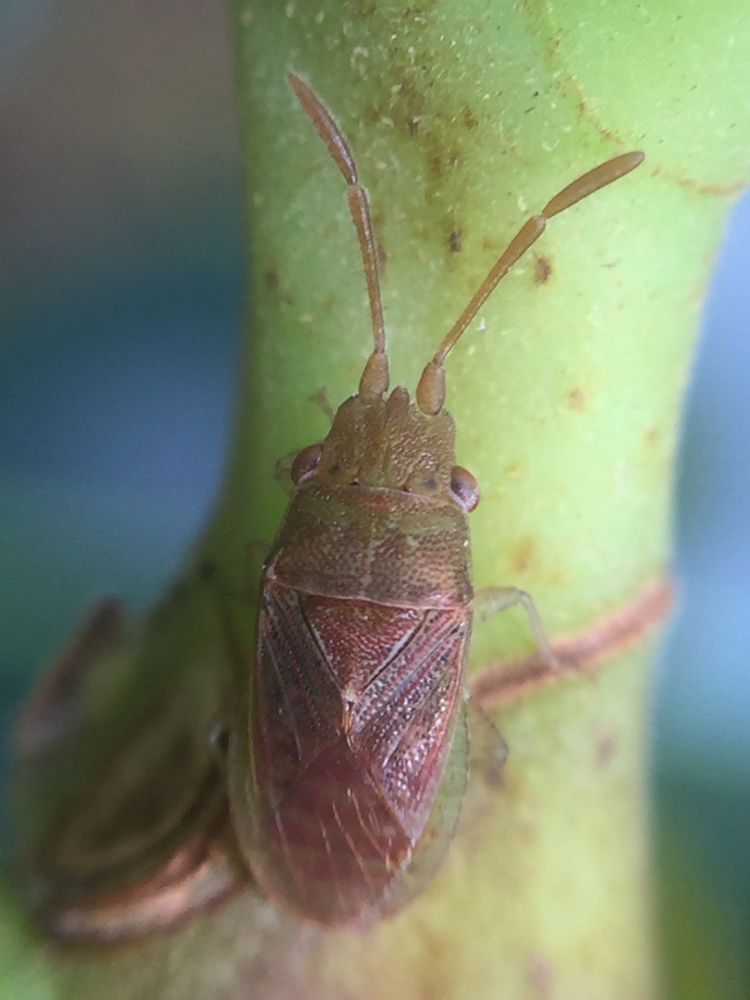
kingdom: Animalia
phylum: Arthropoda
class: Insecta
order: Hemiptera
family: Meschiidae
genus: Meschia
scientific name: Meschia barrowensis
